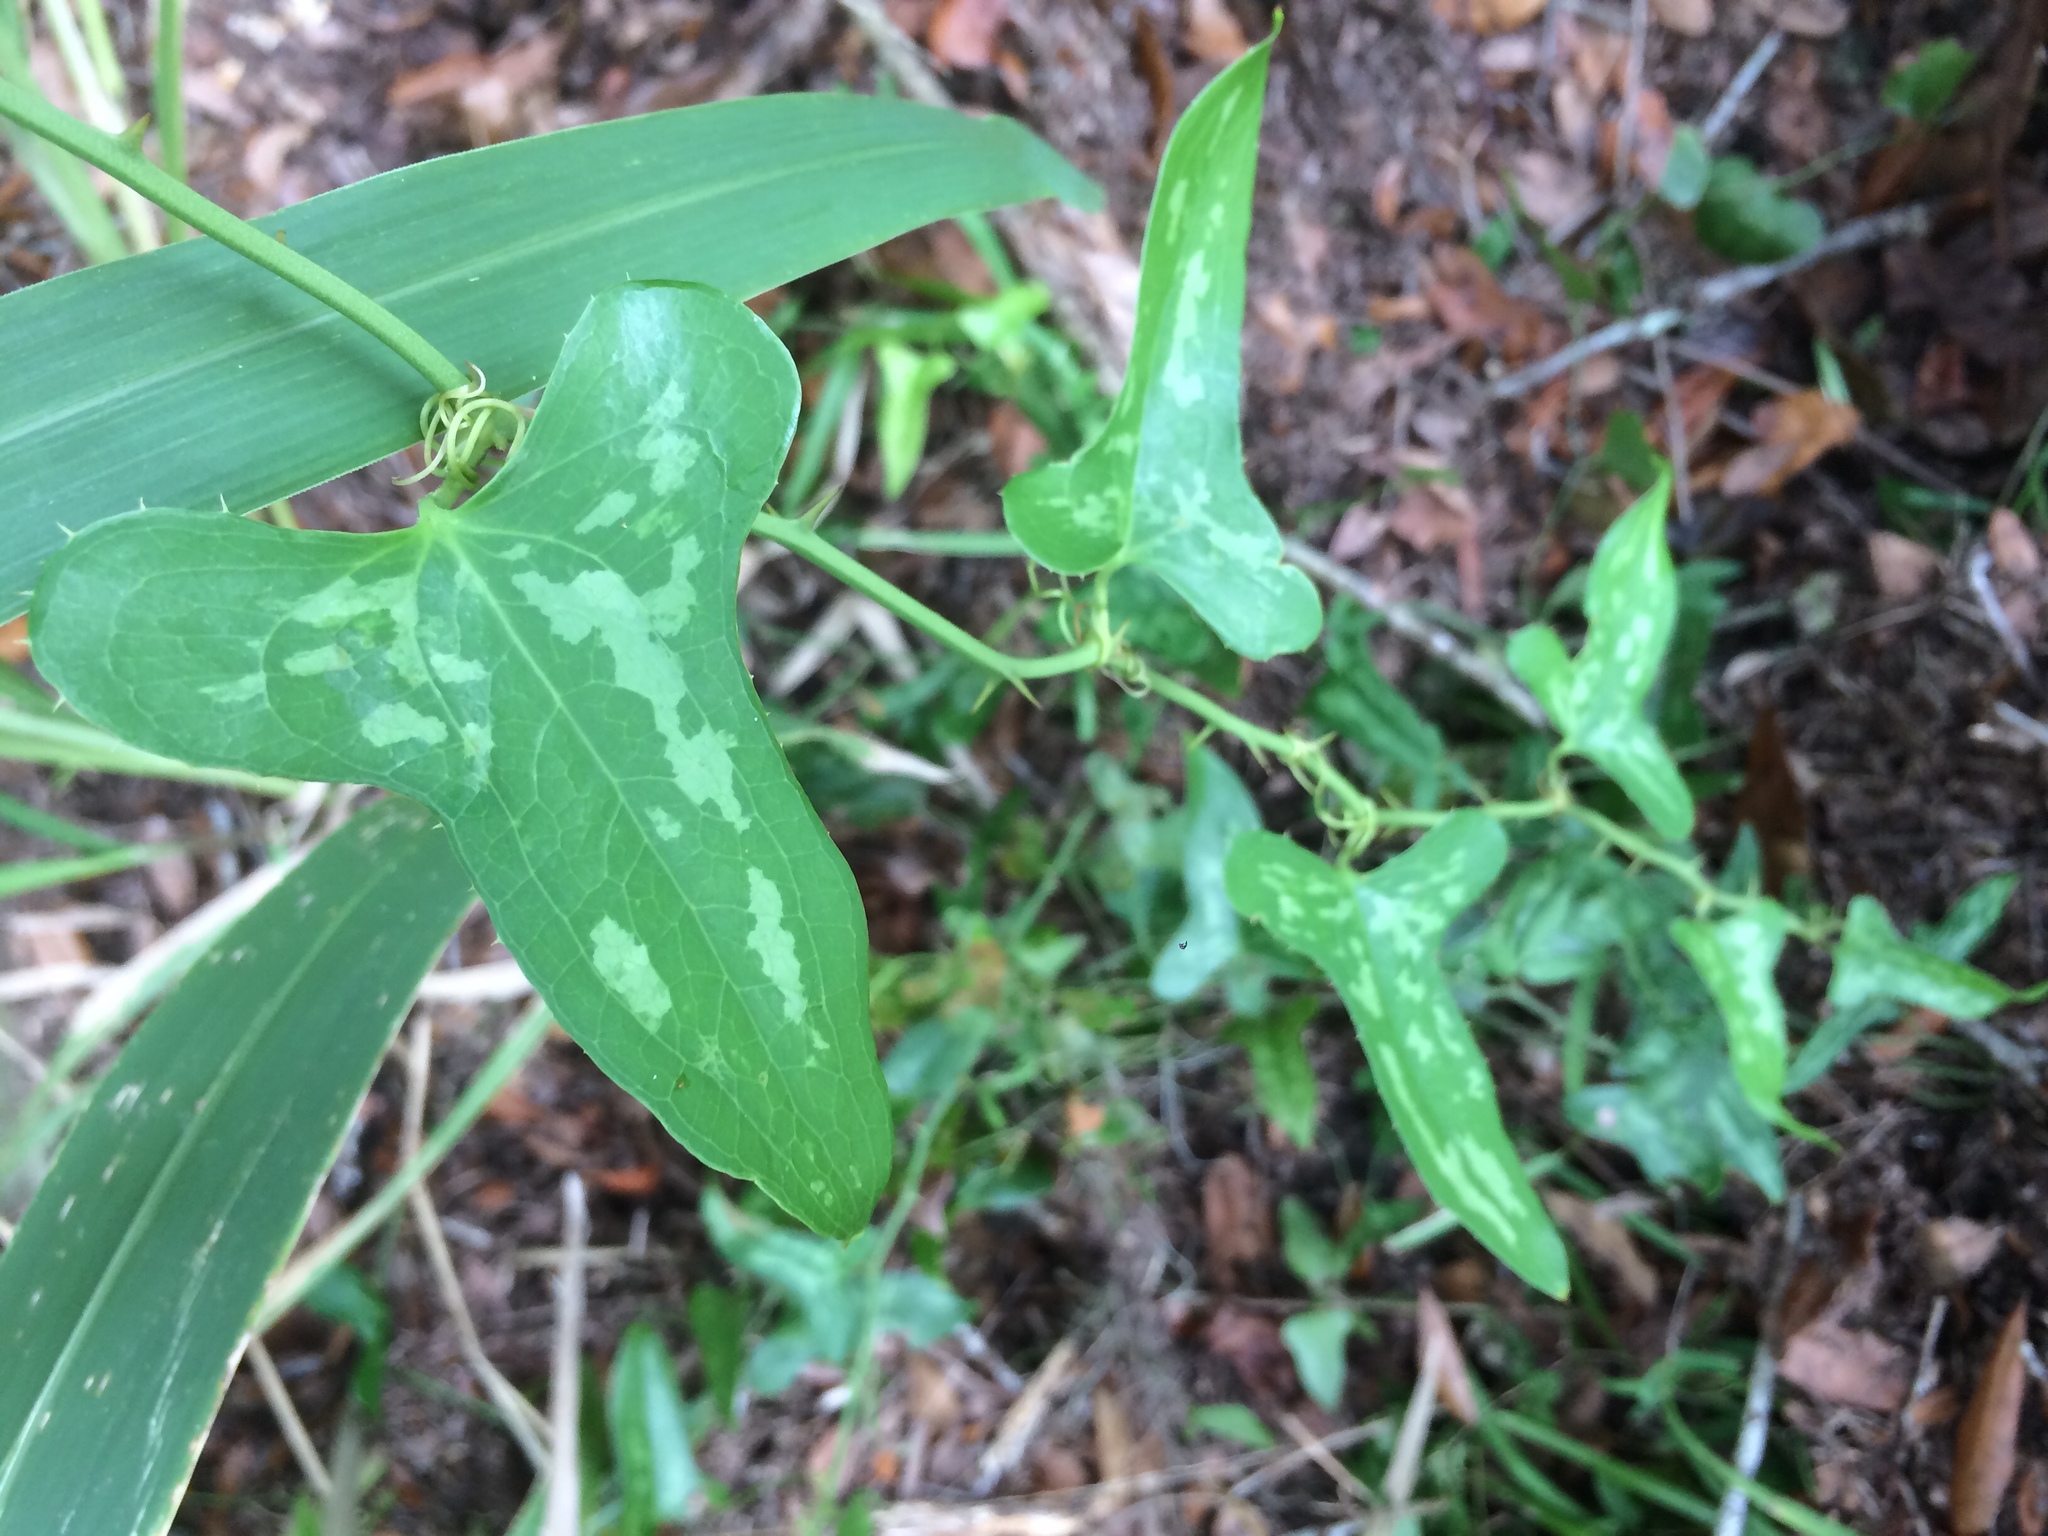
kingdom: Plantae
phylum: Tracheophyta
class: Liliopsida
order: Liliales
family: Smilacaceae
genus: Smilax
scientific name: Smilax bona-nox
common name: Catbrier
